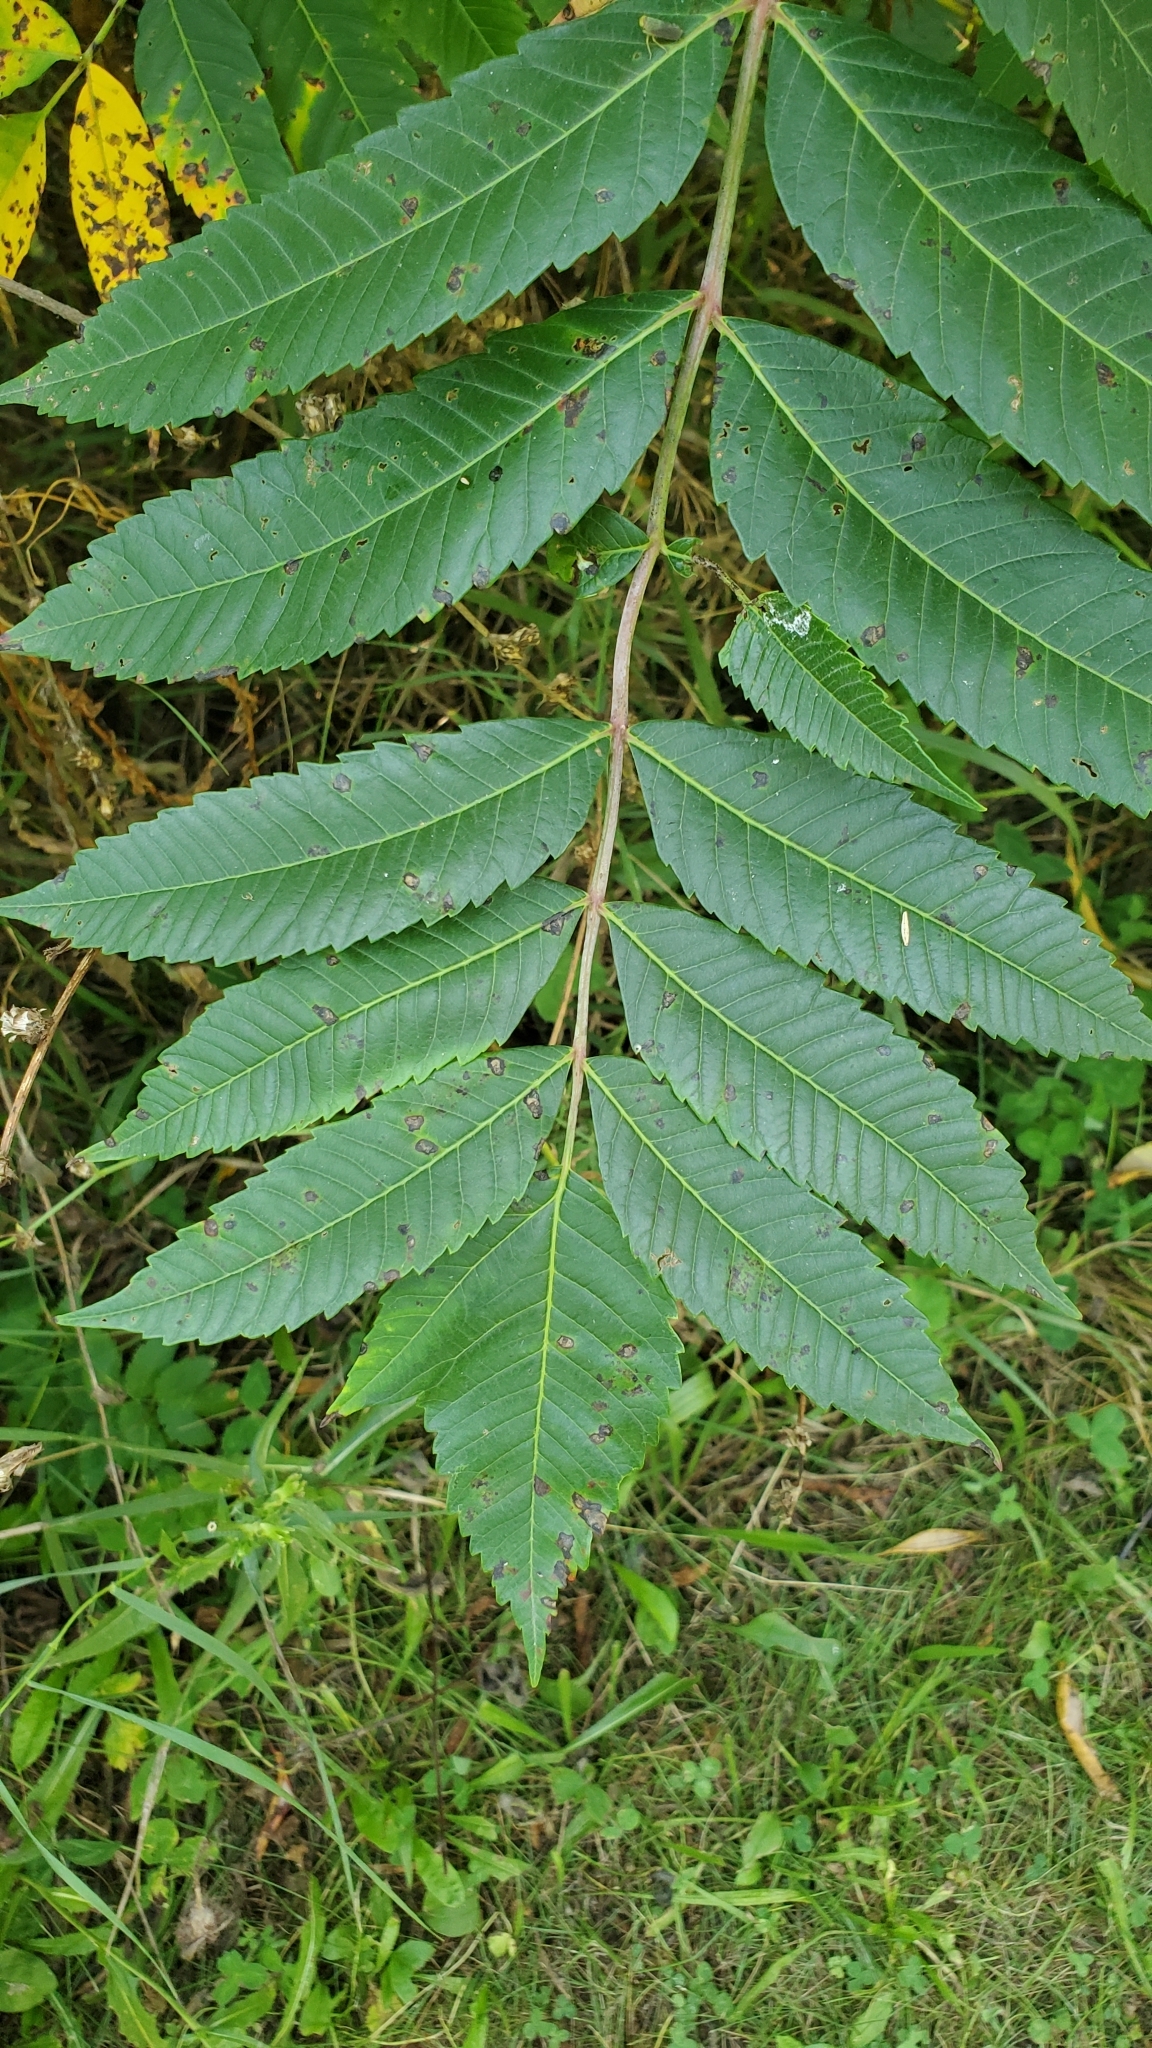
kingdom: Plantae
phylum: Tracheophyta
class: Magnoliopsida
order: Sapindales
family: Anacardiaceae
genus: Rhus
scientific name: Rhus glabra
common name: Scarlet sumac
